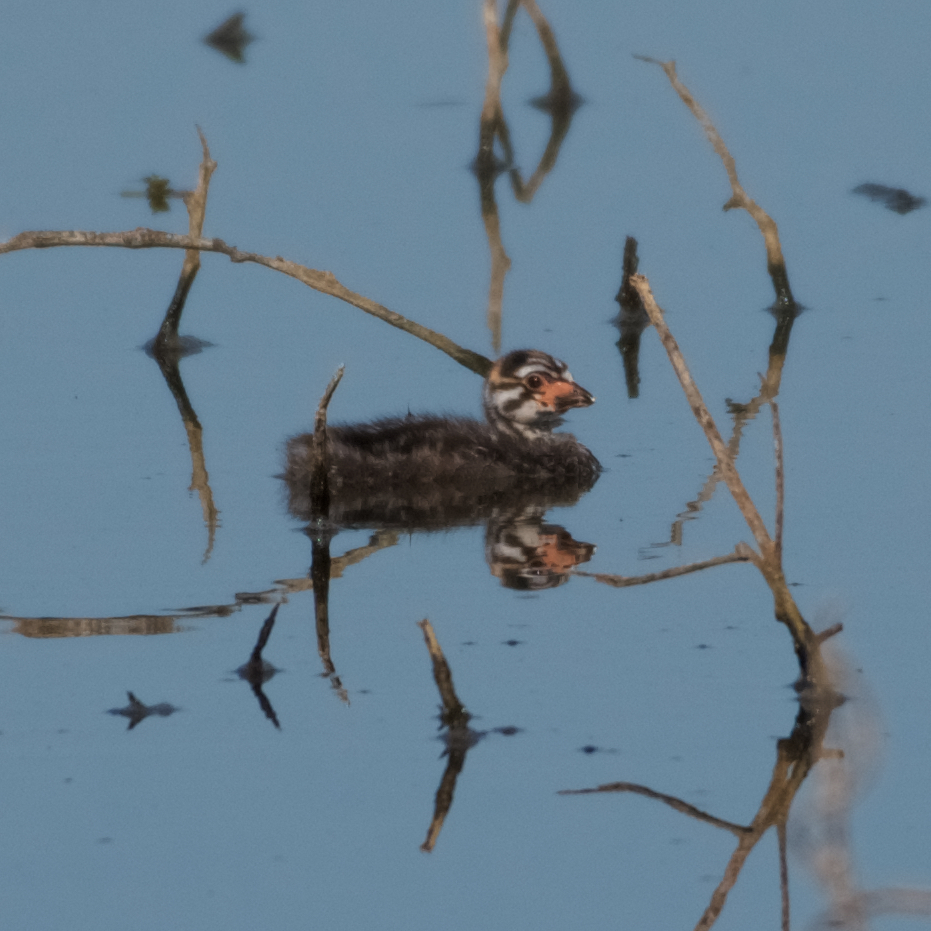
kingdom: Animalia
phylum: Chordata
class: Aves
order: Podicipediformes
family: Podicipedidae
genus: Podilymbus
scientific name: Podilymbus podiceps
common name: Pied-billed grebe
